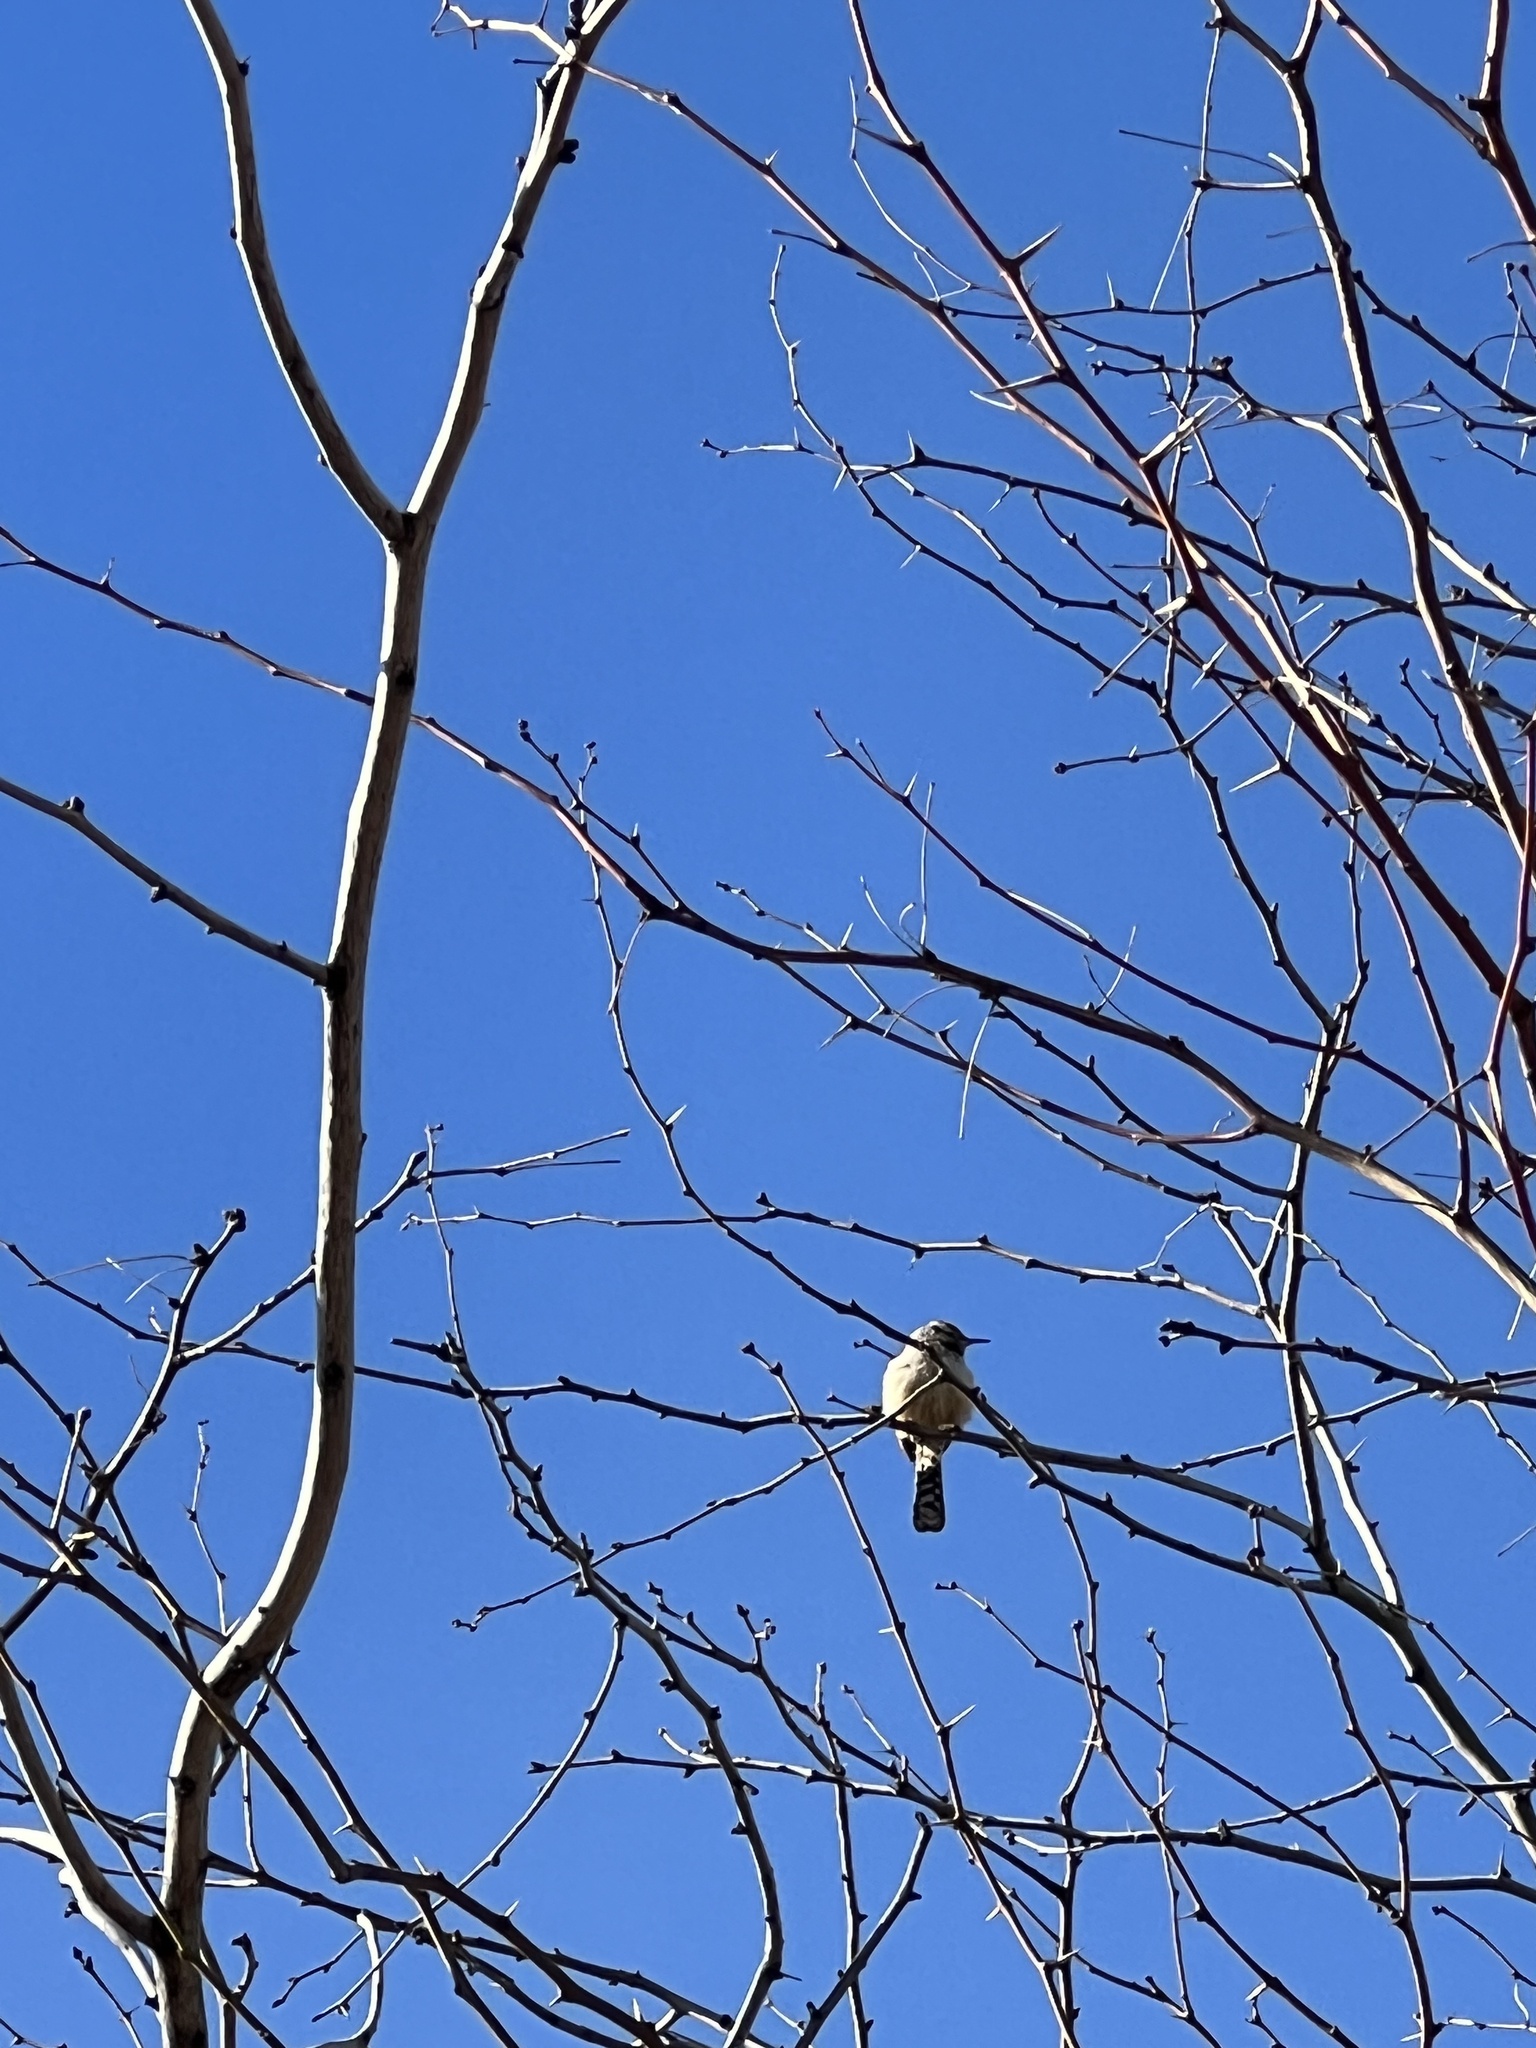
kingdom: Animalia
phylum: Chordata
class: Aves
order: Passeriformes
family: Troglodytidae
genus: Campylorhynchus
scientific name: Campylorhynchus brunneicapillus
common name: Cactus wren
